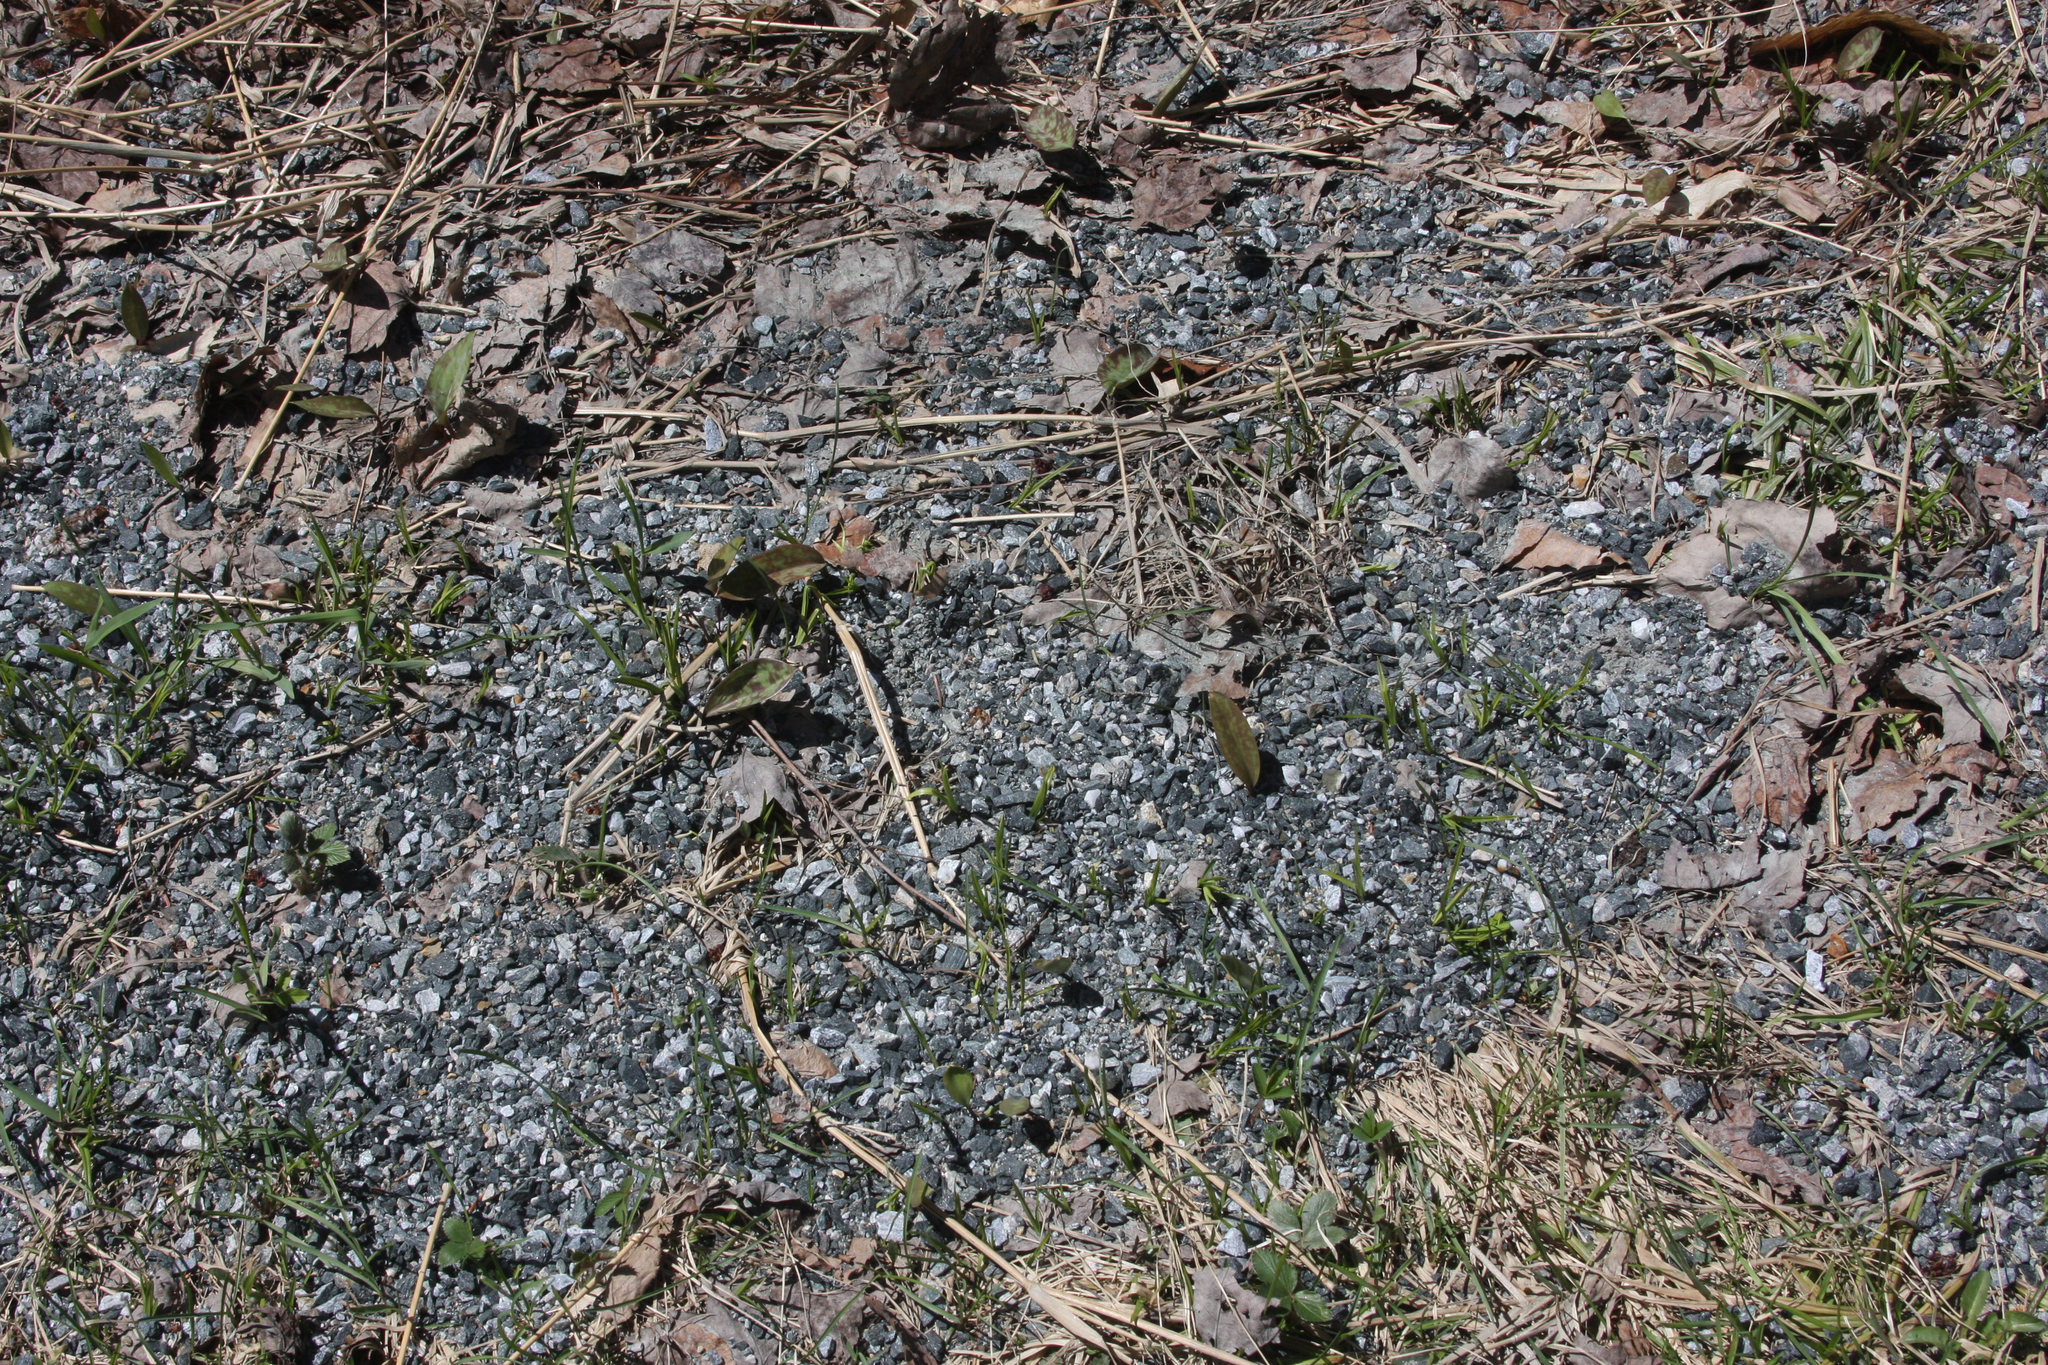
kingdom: Plantae
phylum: Tracheophyta
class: Liliopsida
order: Liliales
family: Liliaceae
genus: Erythronium
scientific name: Erythronium americanum
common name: Yellow adder's-tongue
